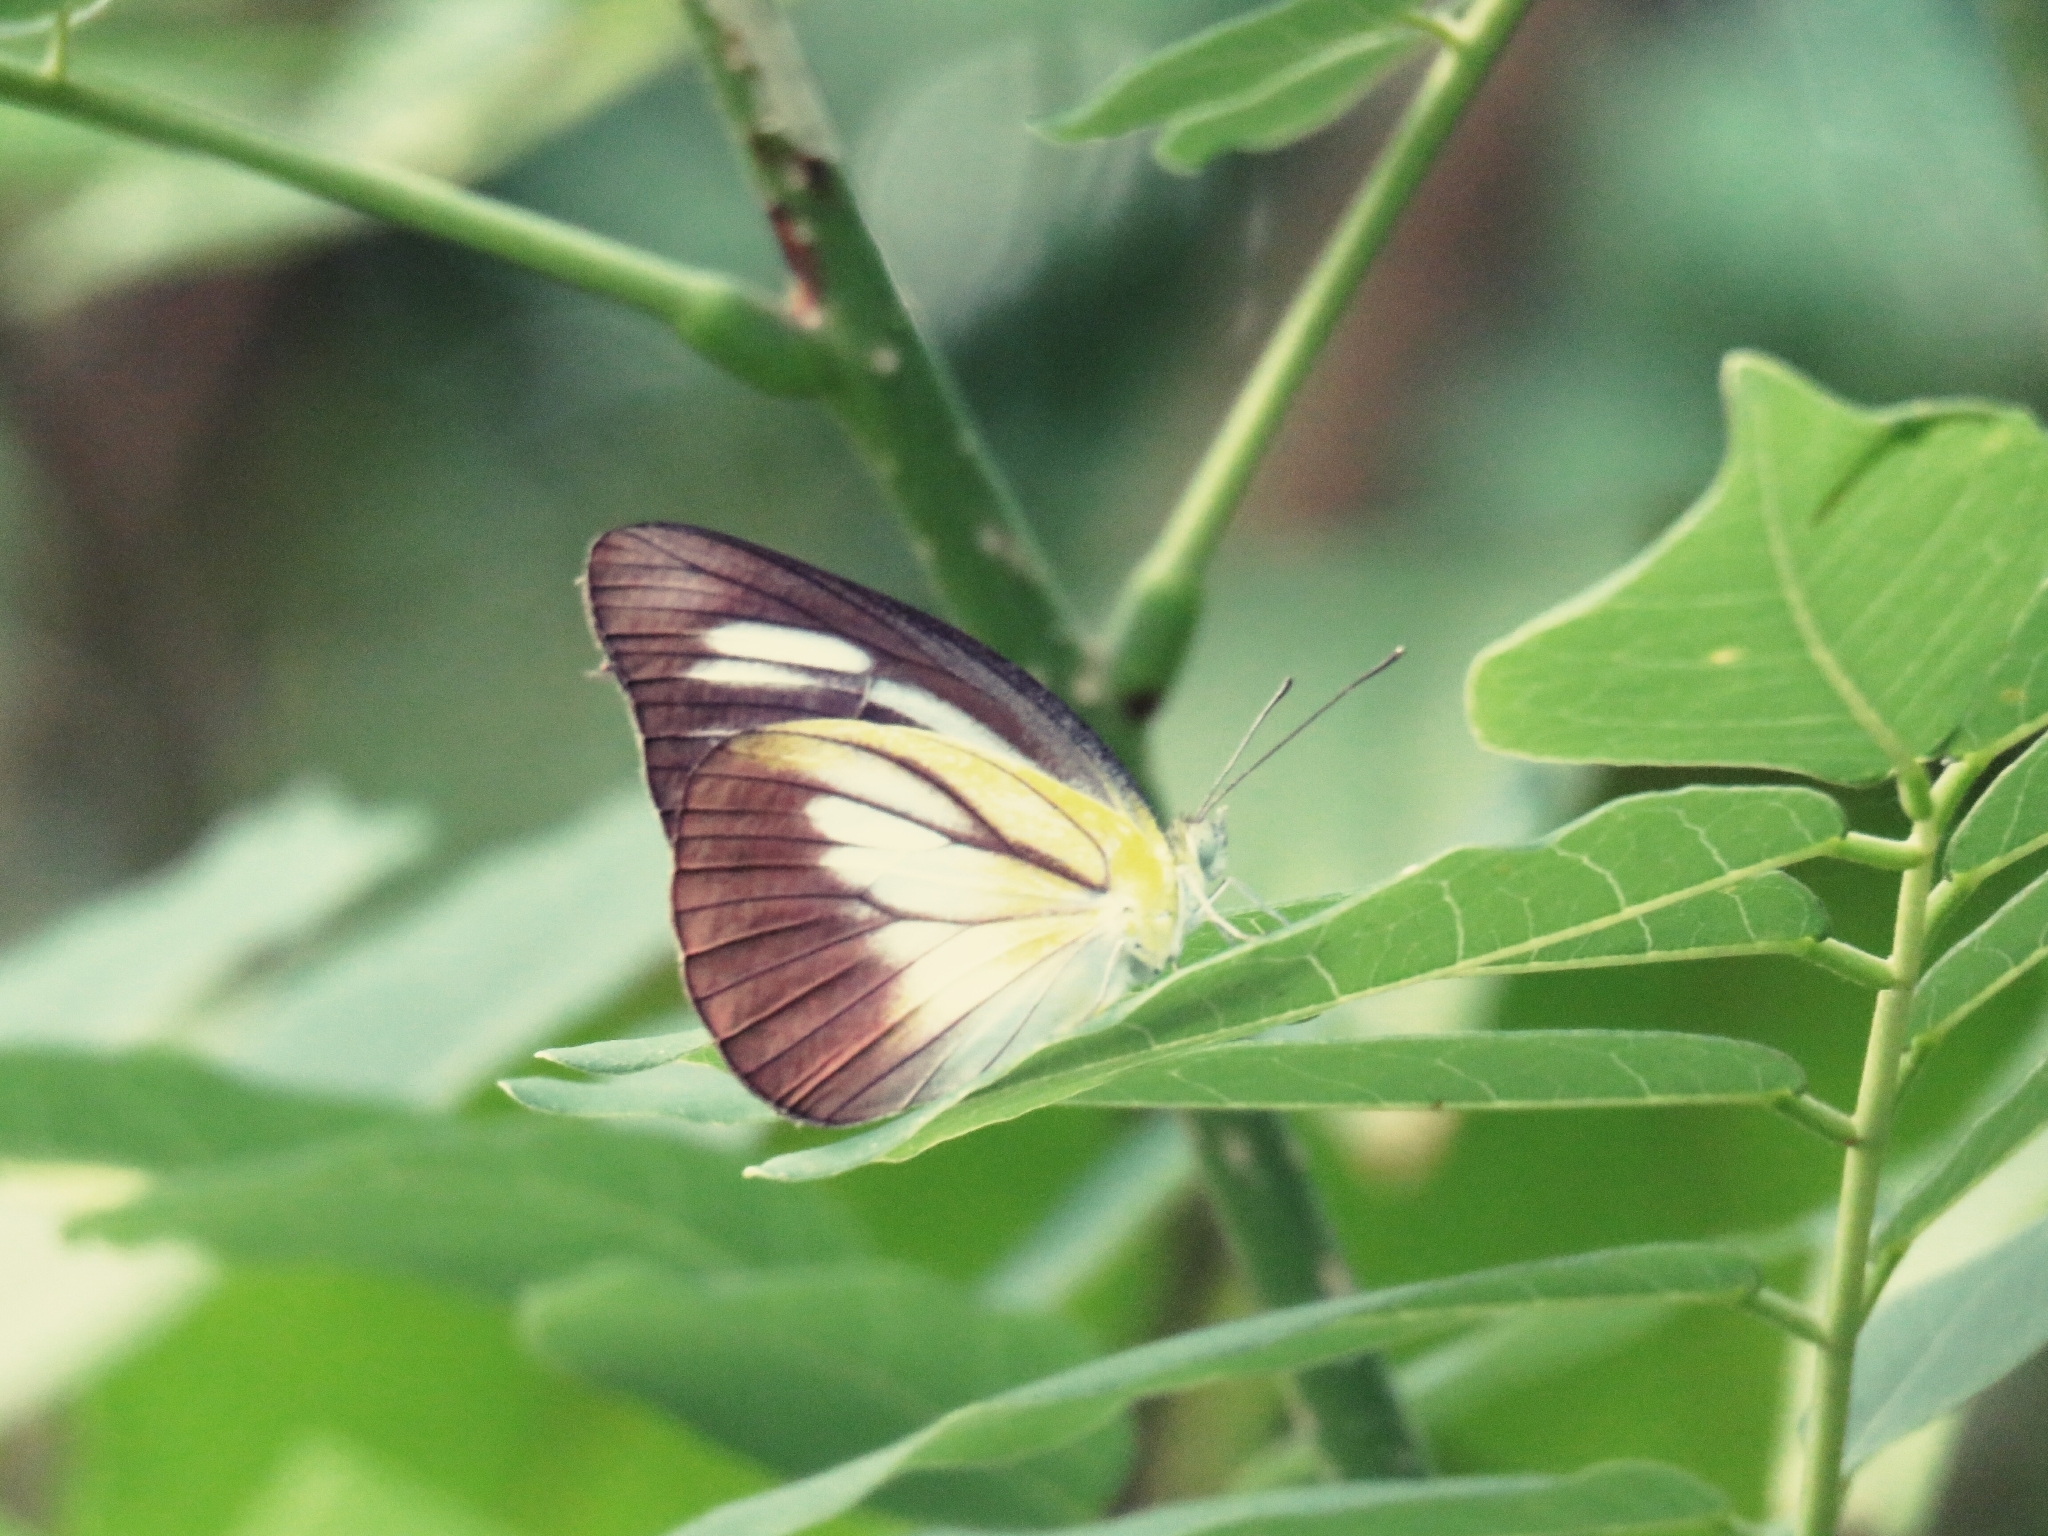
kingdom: Animalia
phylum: Arthropoda
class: Insecta
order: Lepidoptera
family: Pieridae
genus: Appias
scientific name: Appias lyncida
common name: Chocolate albatross
